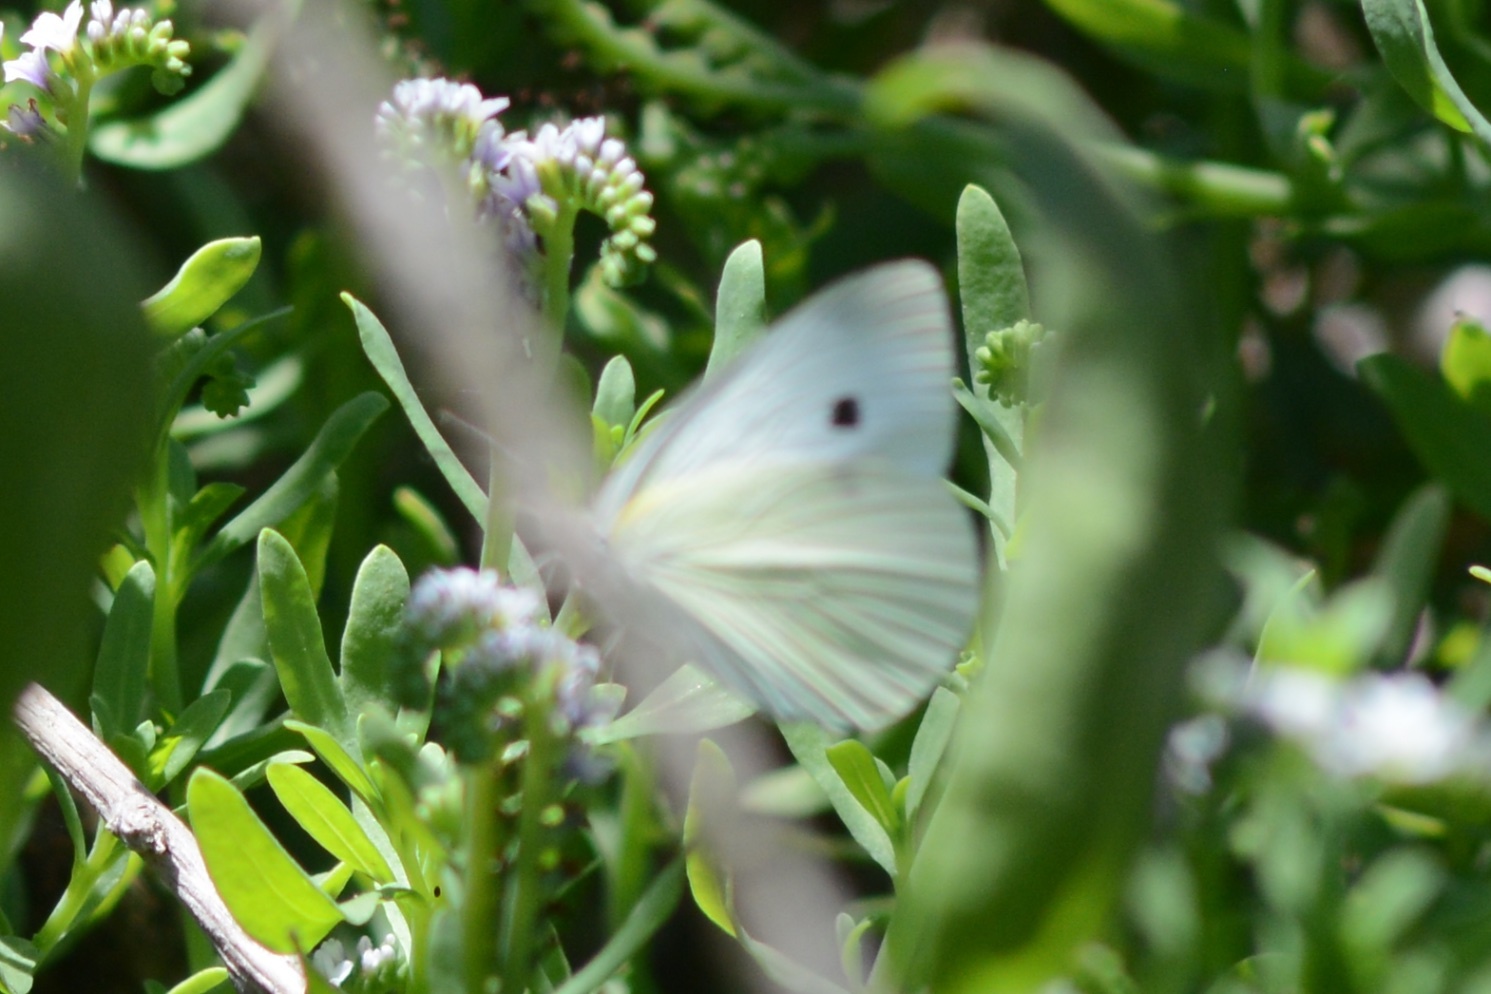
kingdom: Animalia
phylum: Arthropoda
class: Insecta
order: Lepidoptera
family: Pieridae
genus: Pieris
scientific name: Pieris rapae
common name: Small white
